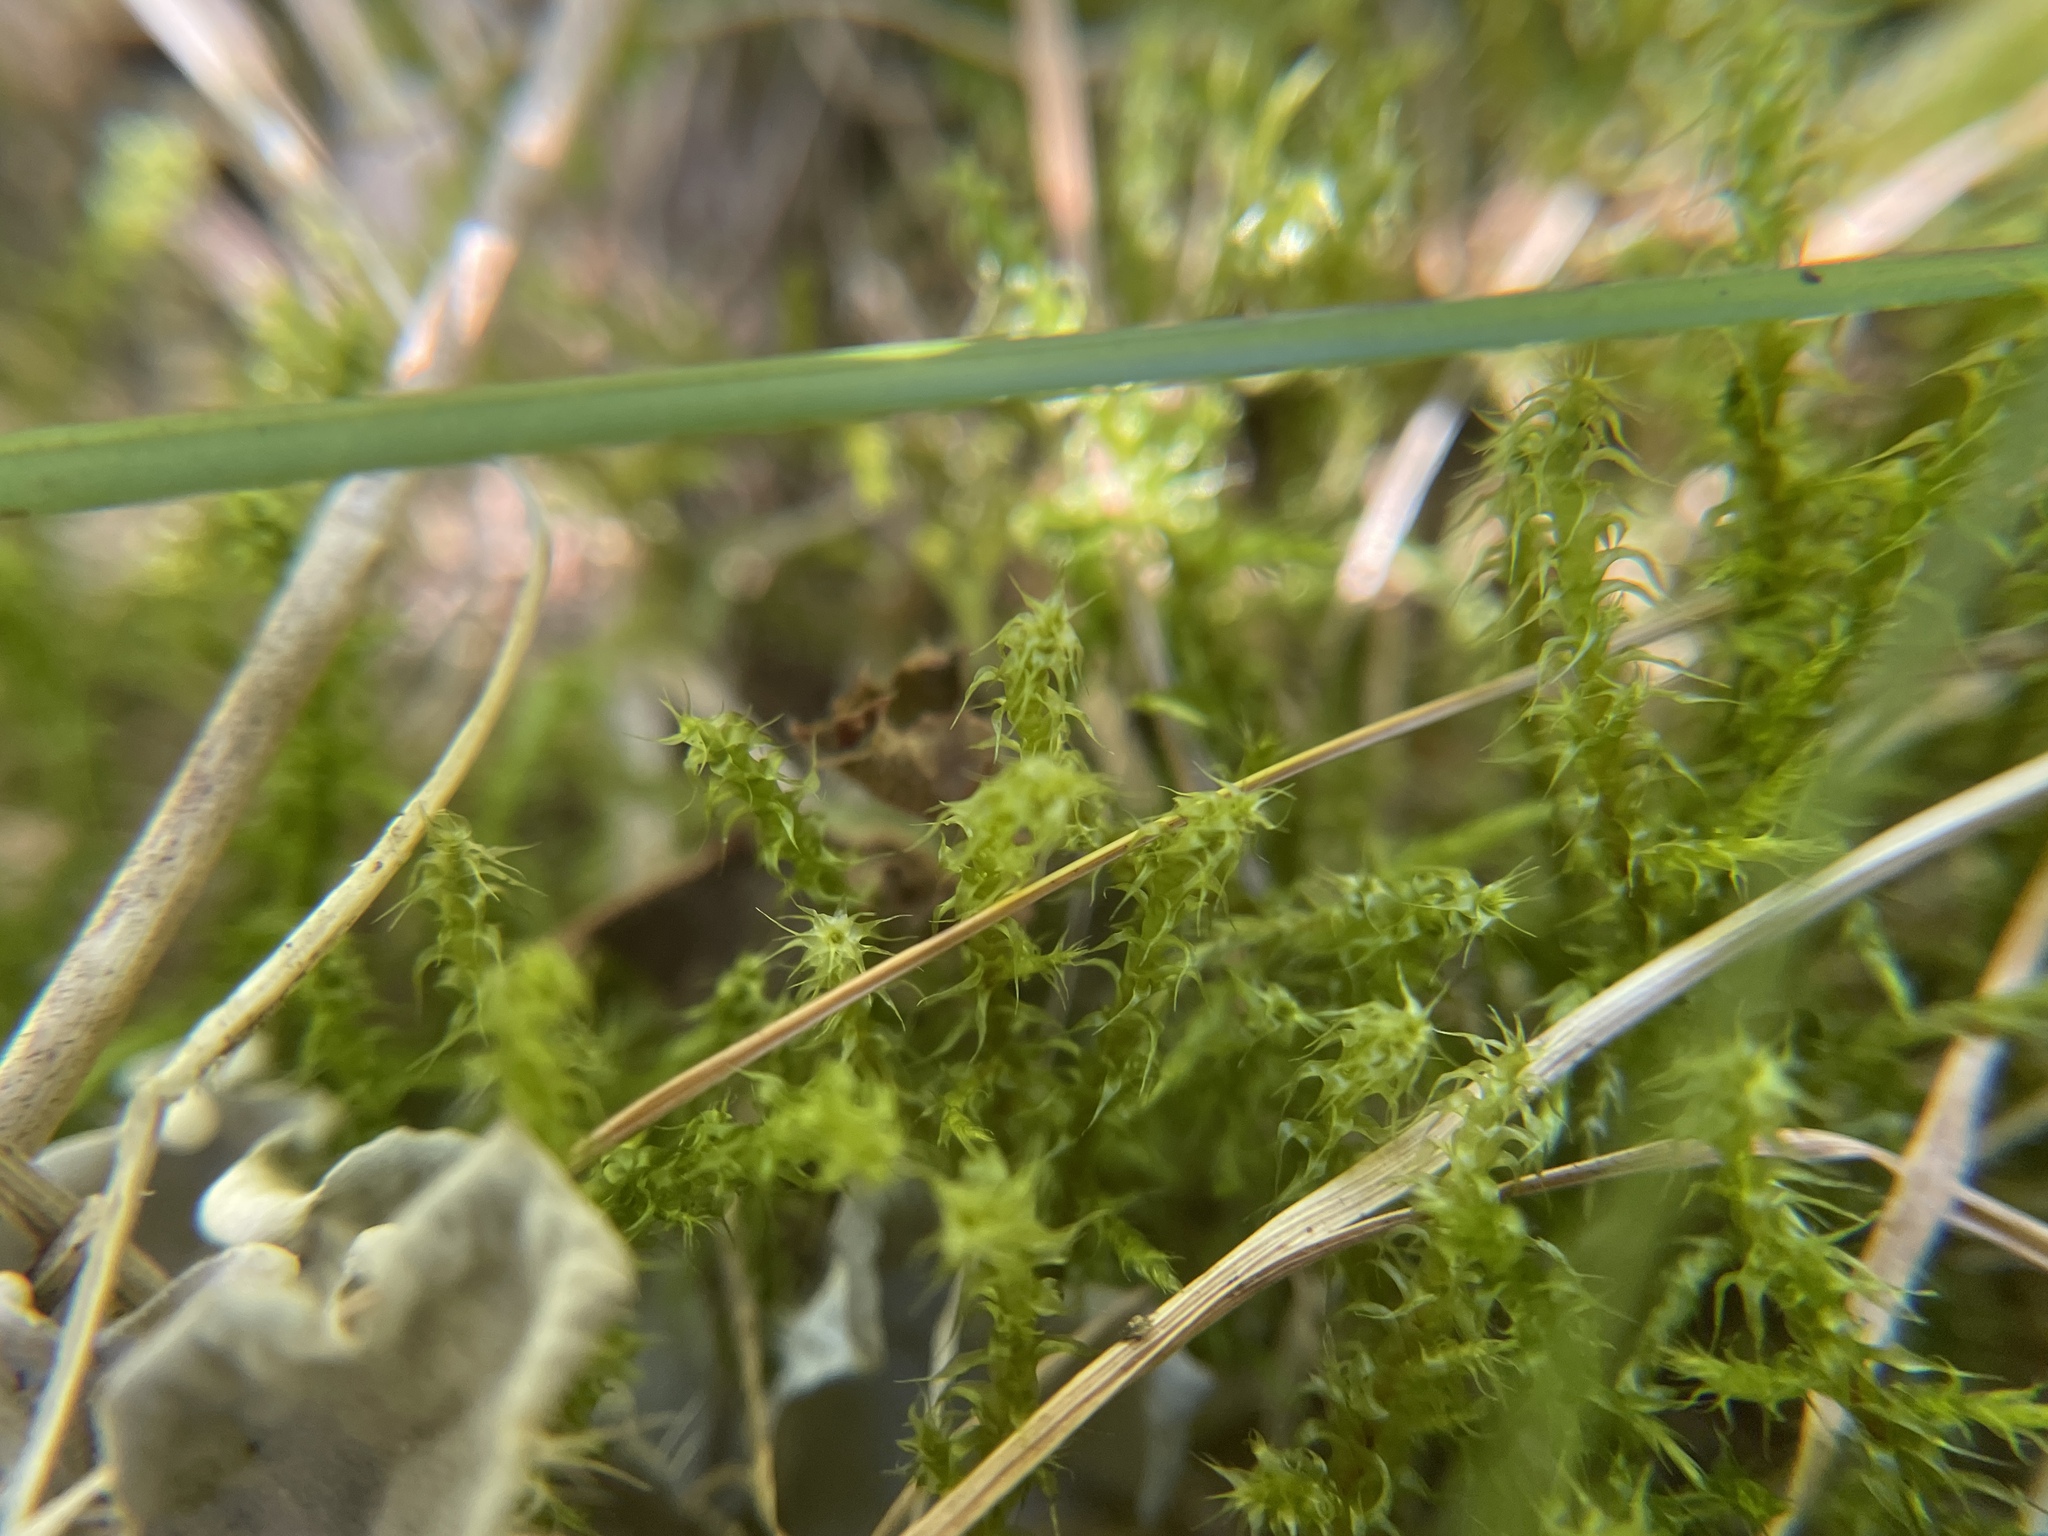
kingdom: Plantae
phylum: Bryophyta
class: Bryopsida
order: Hypnales
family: Hylocomiaceae
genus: Rhytidiadelphus
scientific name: Rhytidiadelphus squarrosus
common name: Springy turf-moss
